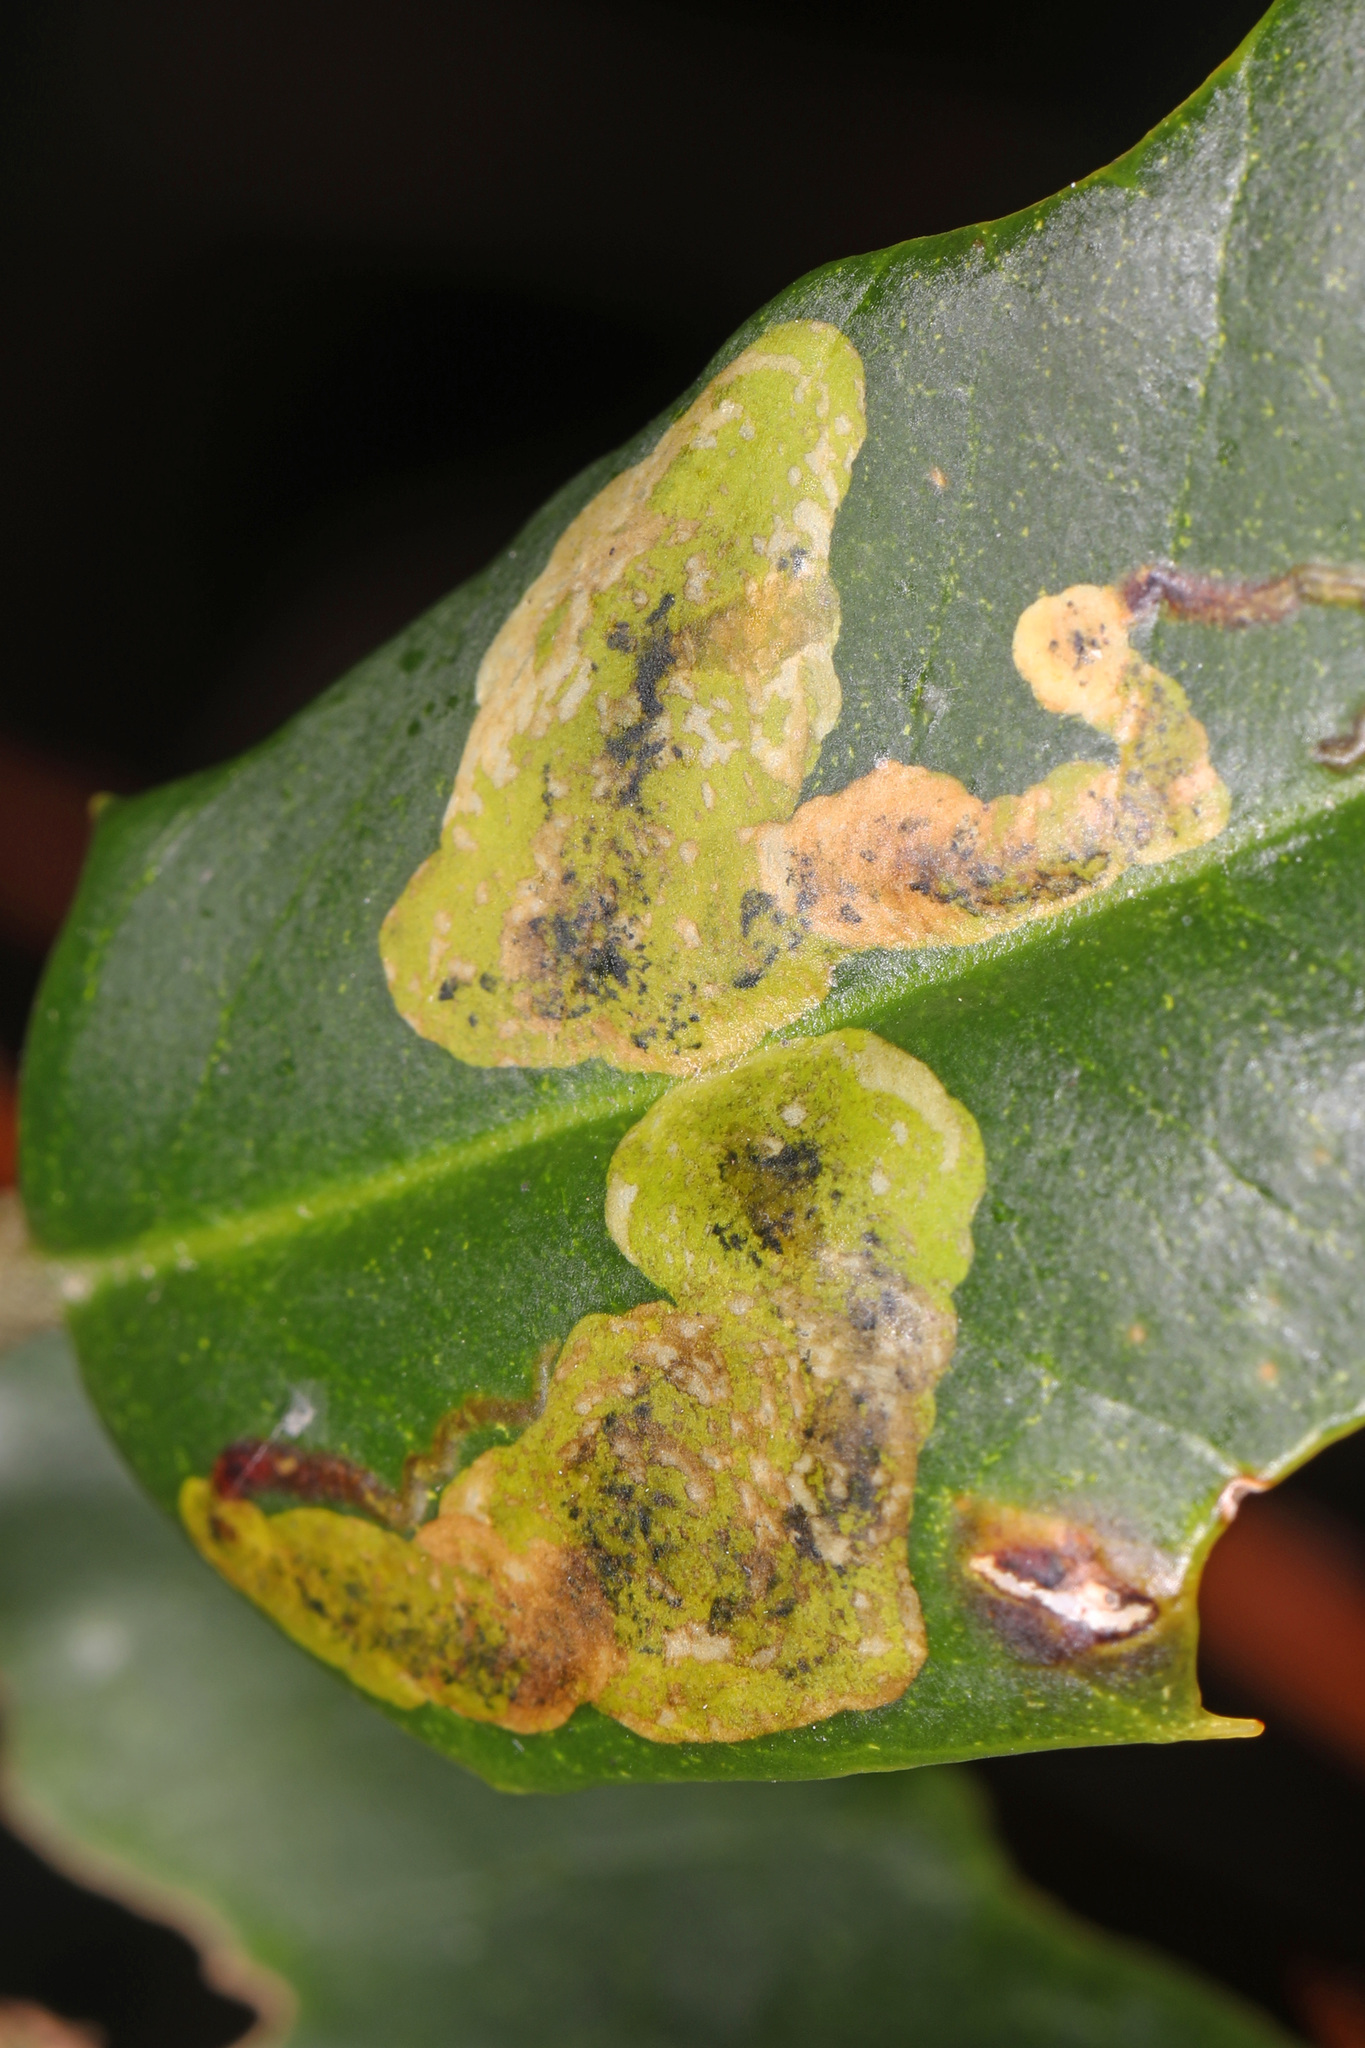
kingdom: Animalia
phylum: Arthropoda
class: Insecta
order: Diptera
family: Agromyzidae
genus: Phytomyza
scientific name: Phytomyza ilicicola
